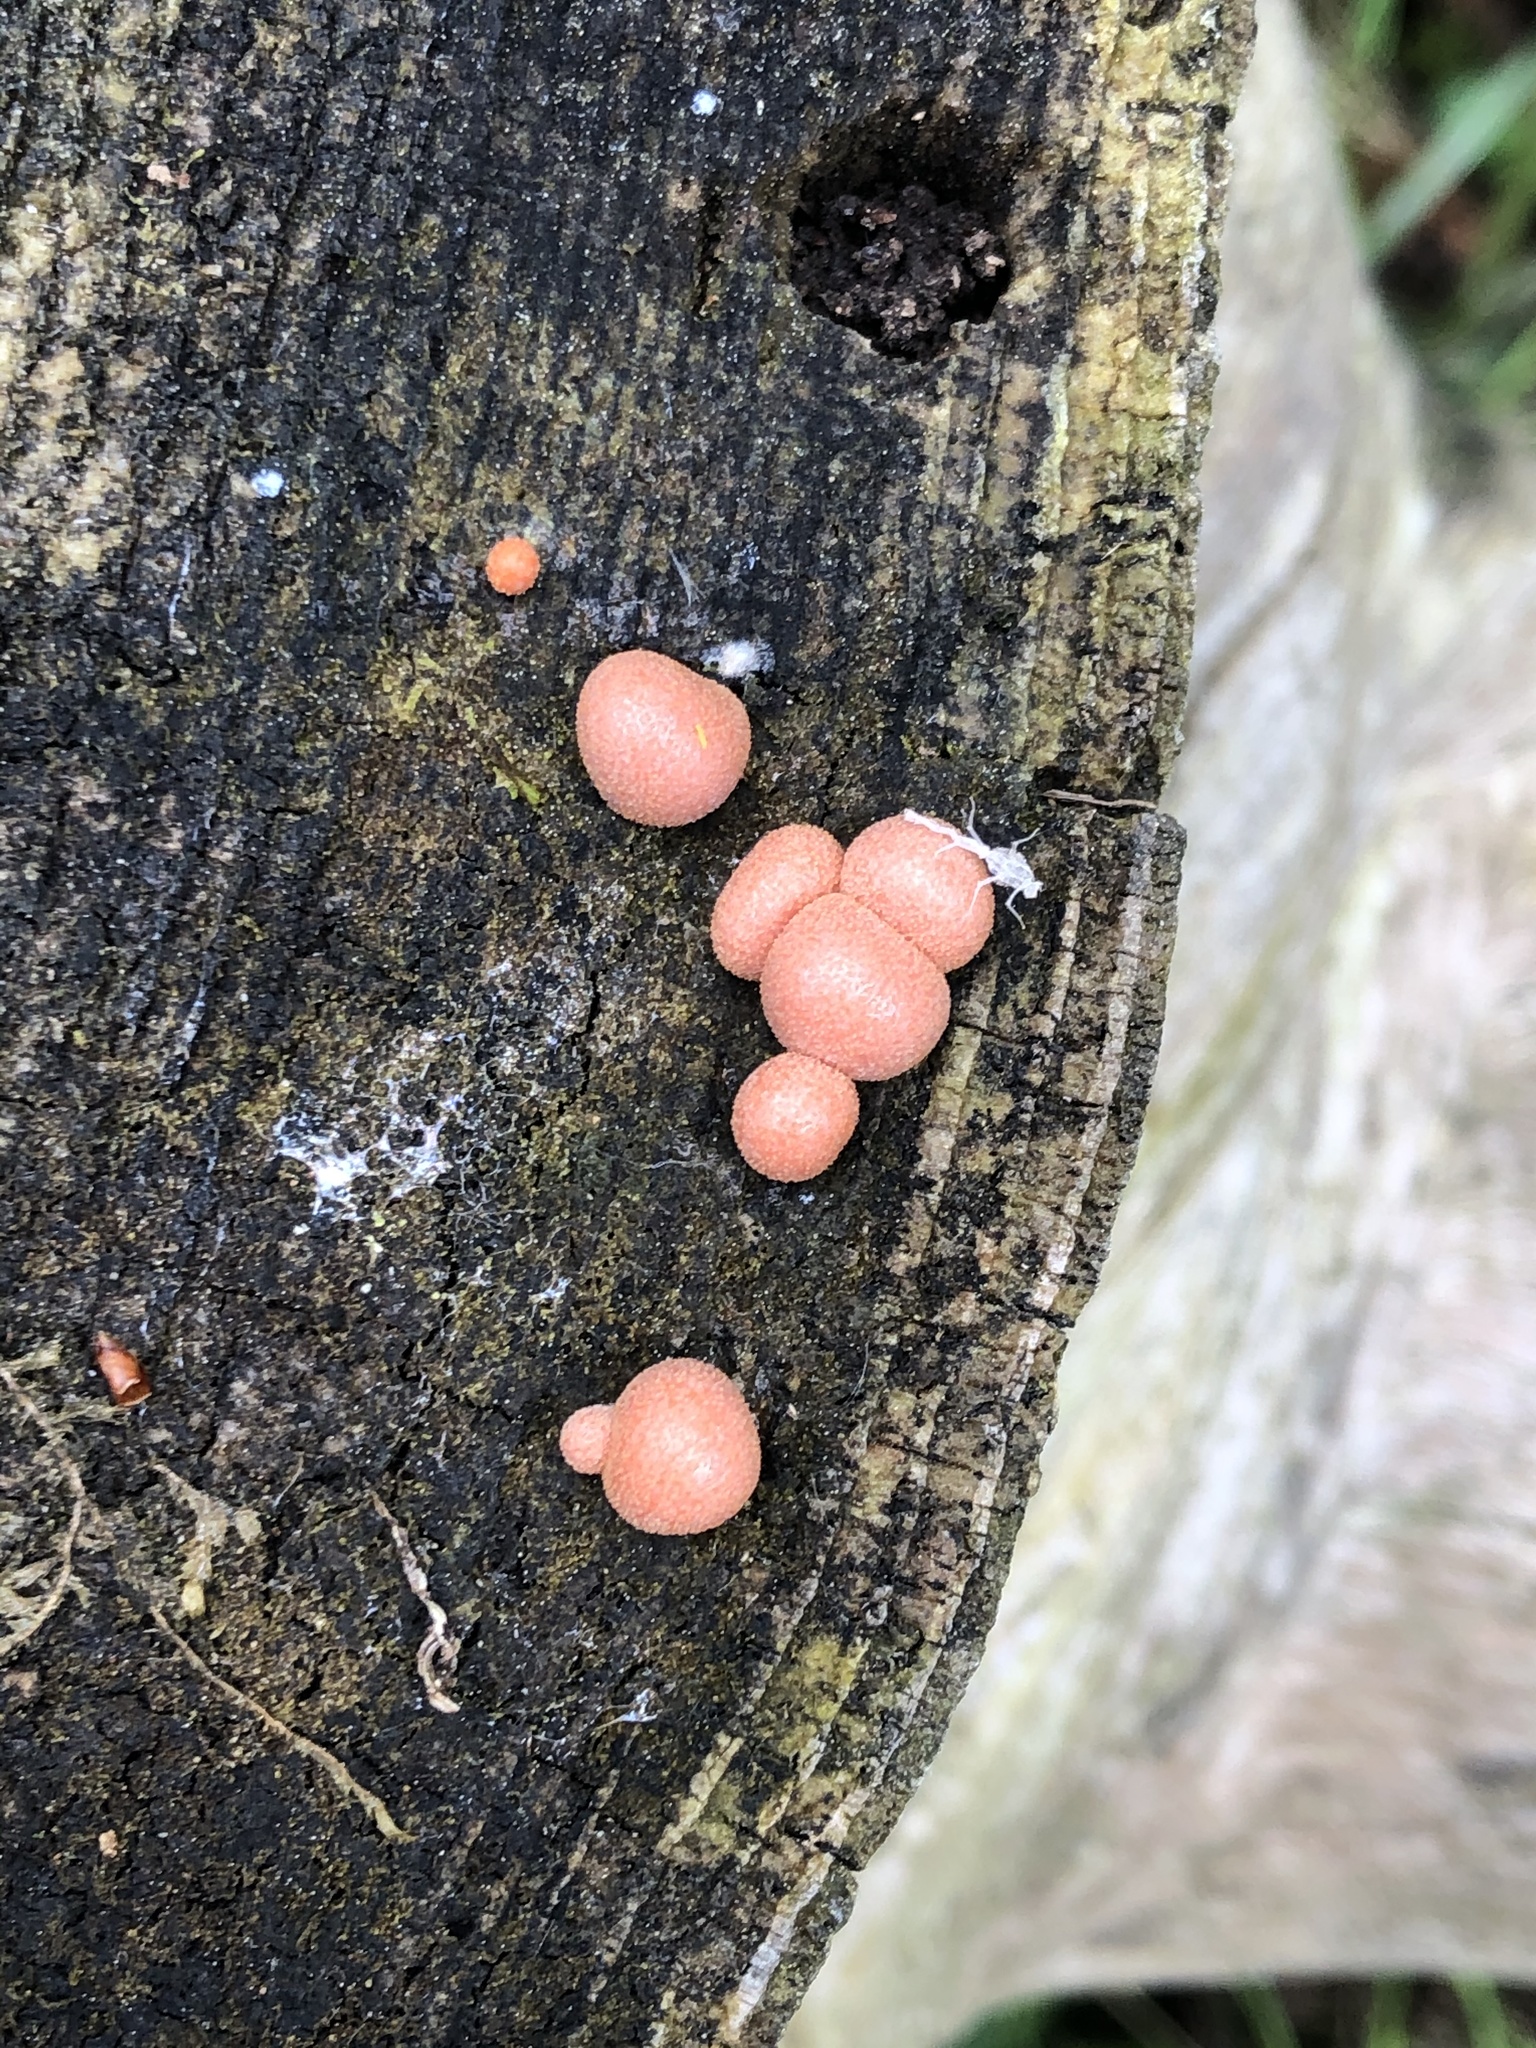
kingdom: Protozoa
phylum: Mycetozoa
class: Myxomycetes
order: Cribrariales
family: Tubiferaceae
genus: Lycogala
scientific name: Lycogala epidendrum
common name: Wolf's milk
